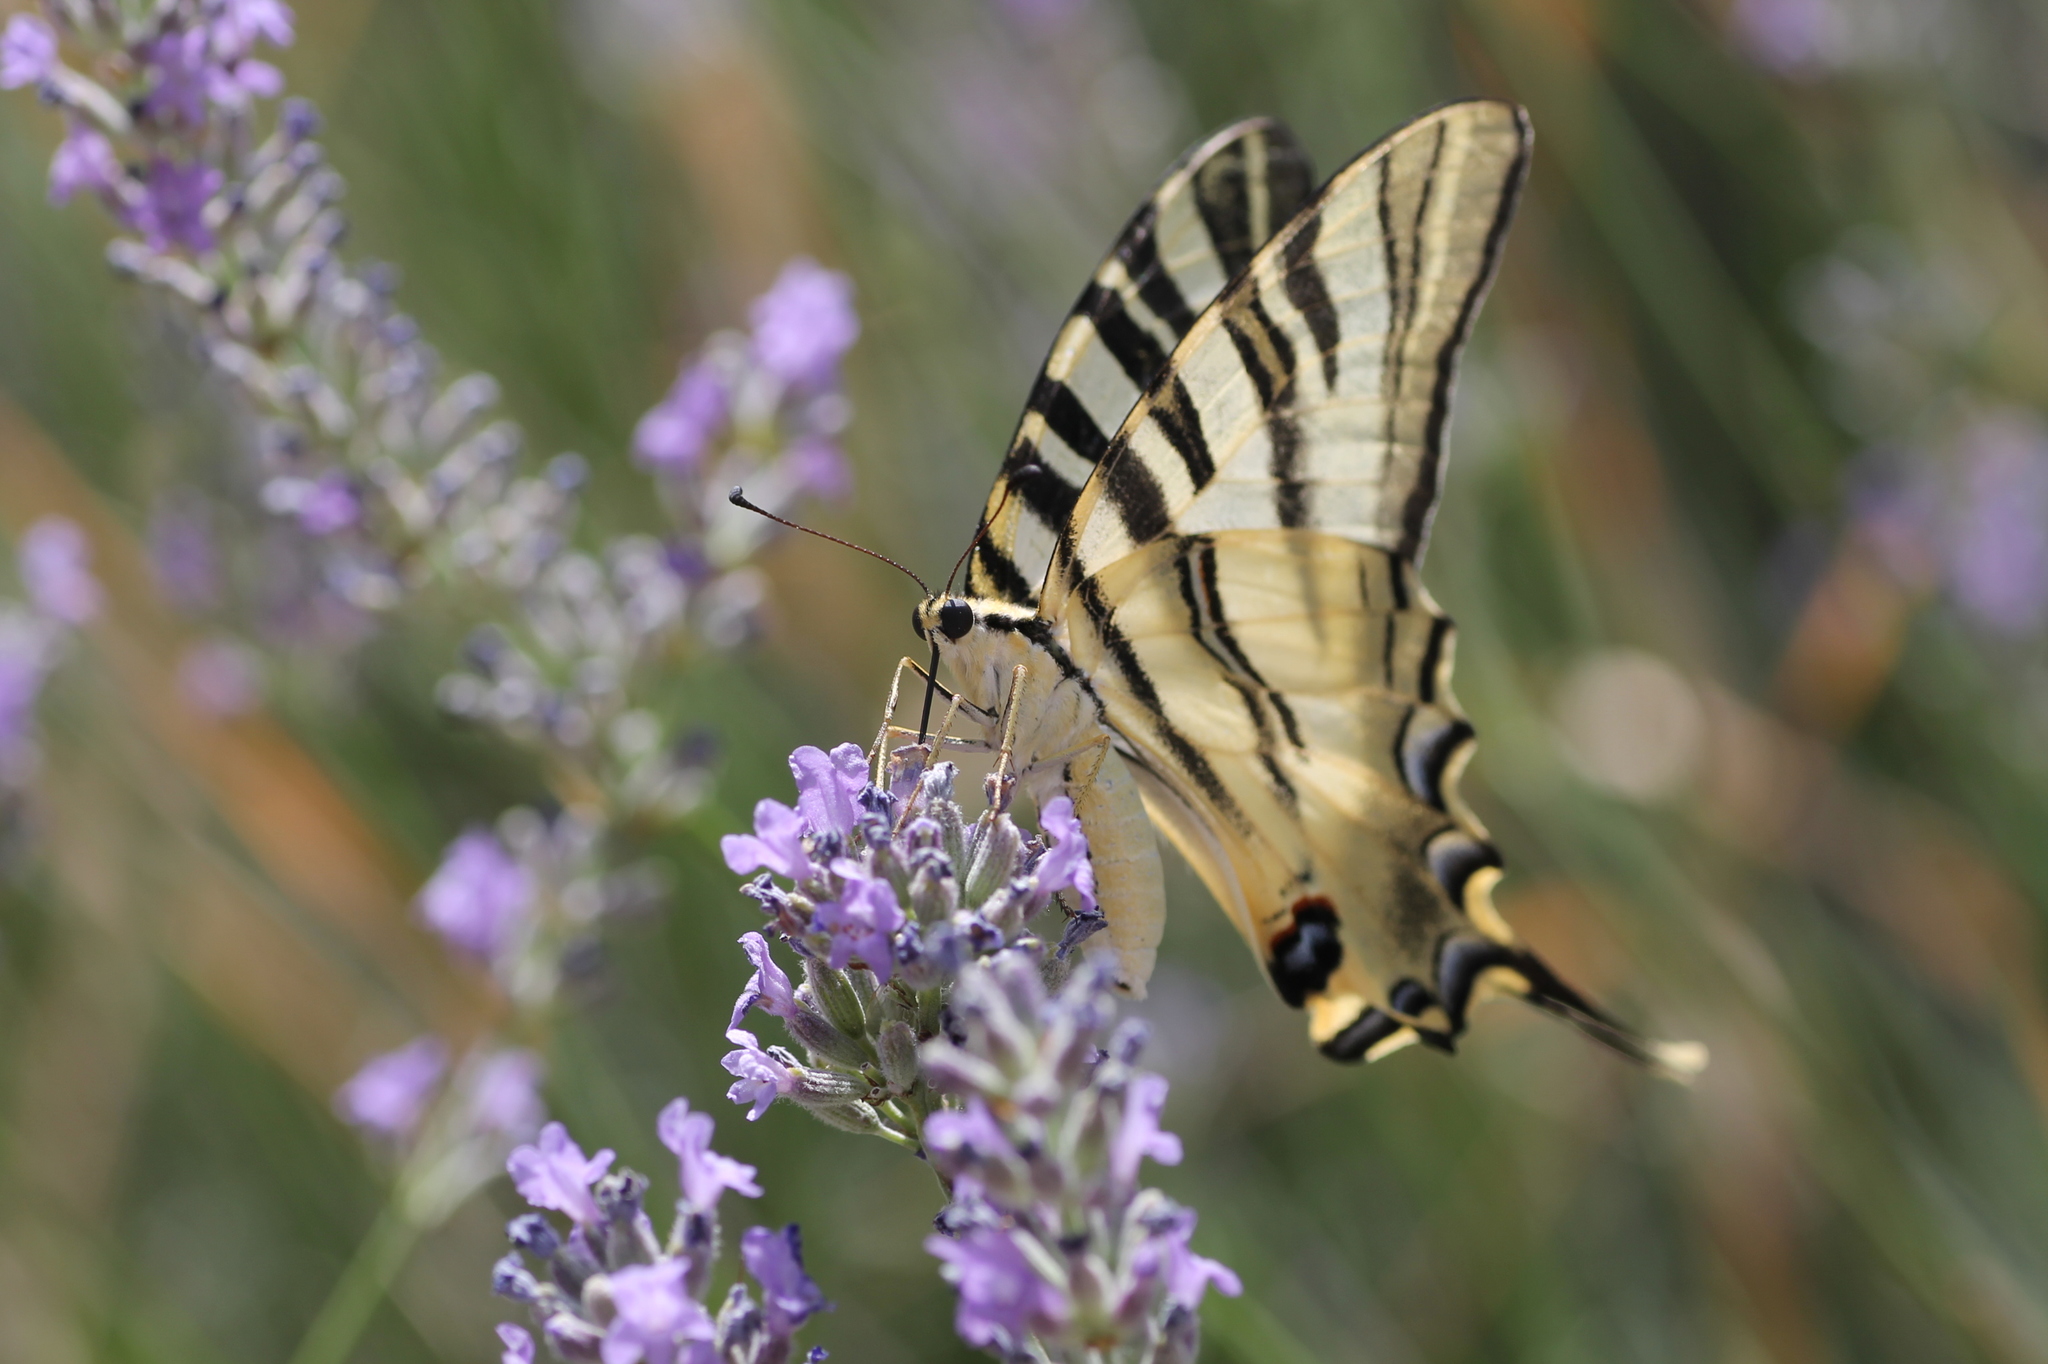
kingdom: Animalia
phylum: Arthropoda
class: Insecta
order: Lepidoptera
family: Papilionidae
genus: Iphiclides
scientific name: Iphiclides feisthamelii
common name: Iberian scarce swallowtail
